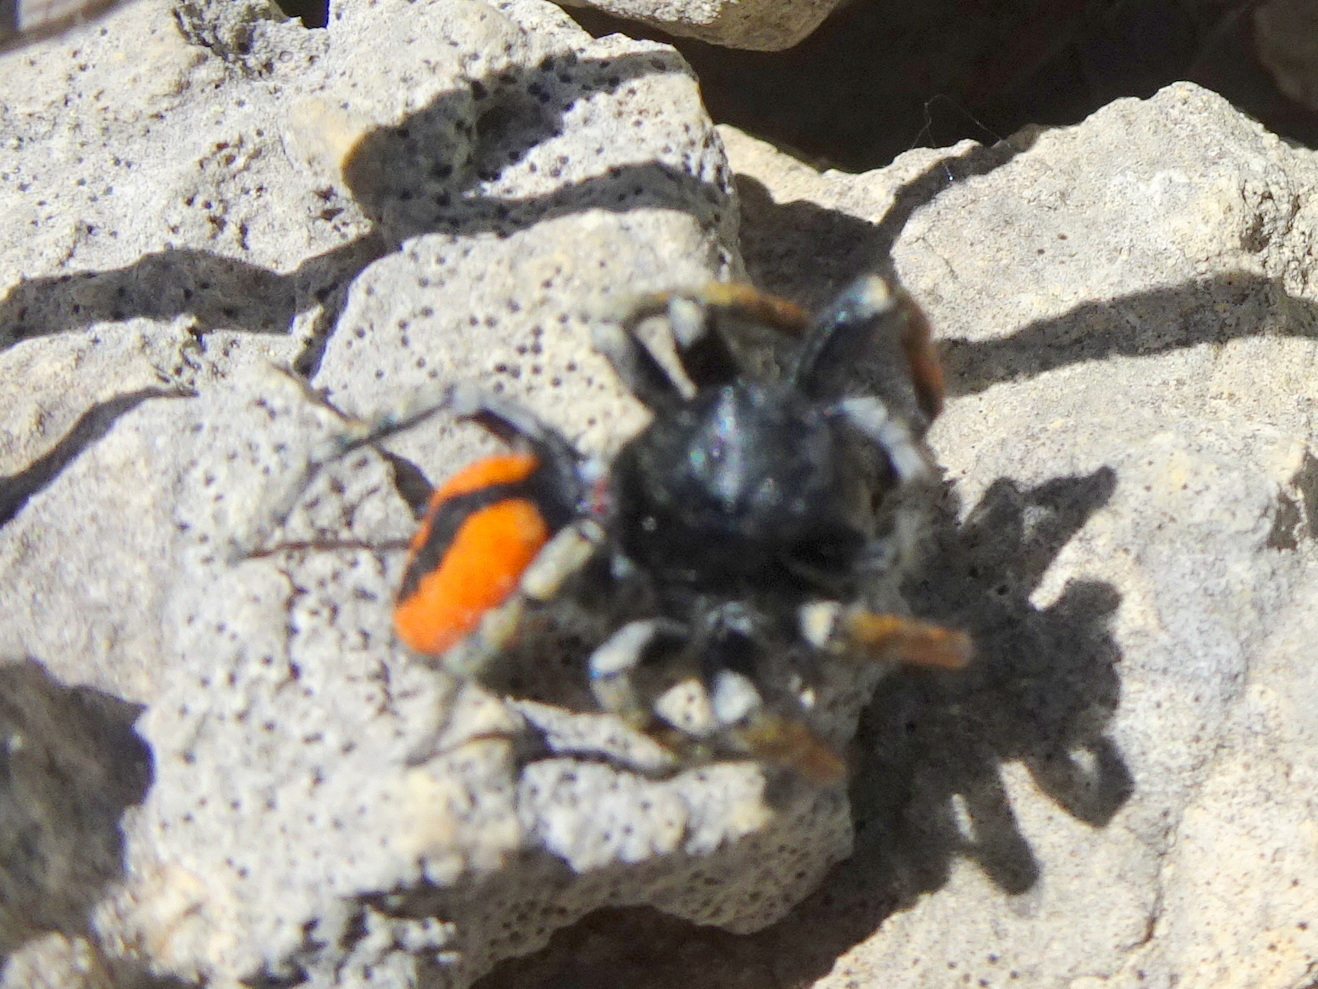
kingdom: Animalia
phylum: Arthropoda
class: Arachnida
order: Araneae
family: Salticidae
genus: Philaeus
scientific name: Philaeus chrysops
